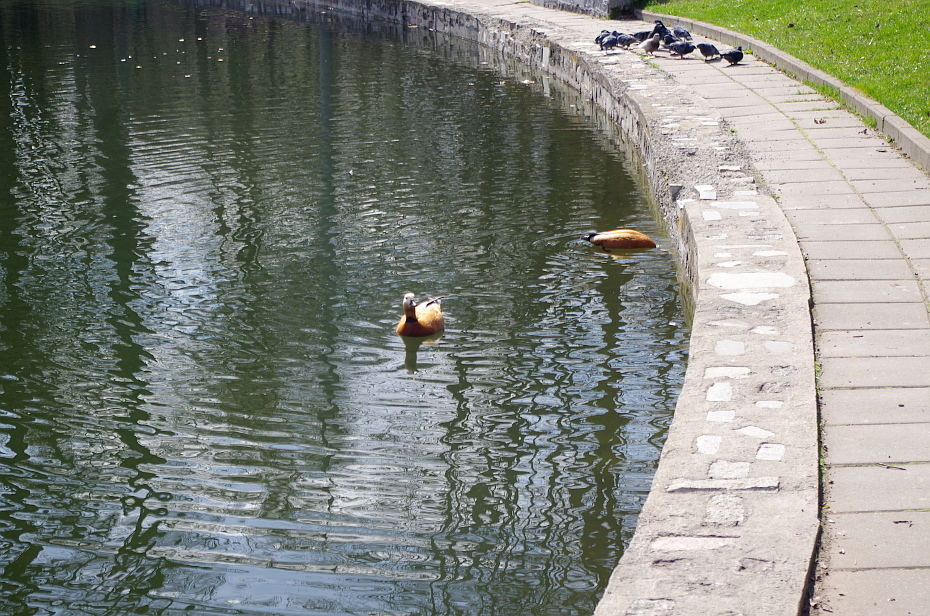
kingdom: Animalia
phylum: Chordata
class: Aves
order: Anseriformes
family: Anatidae
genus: Tadorna
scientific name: Tadorna ferruginea
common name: Ruddy shelduck
